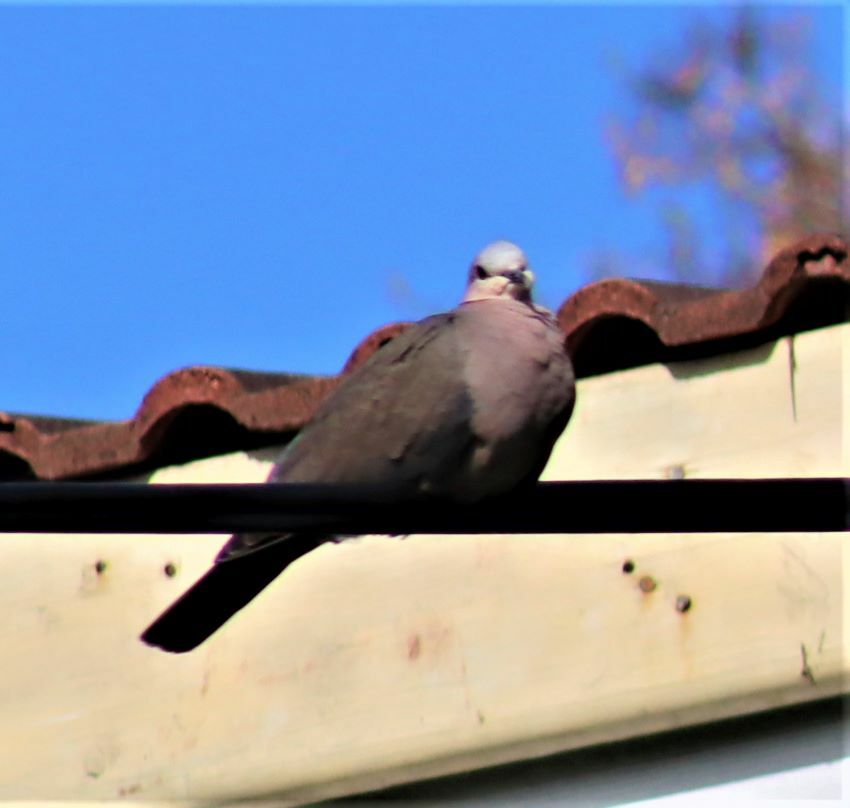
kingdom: Animalia
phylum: Chordata
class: Aves
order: Columbiformes
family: Columbidae
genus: Streptopelia
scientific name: Streptopelia semitorquata
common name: Red-eyed dove
